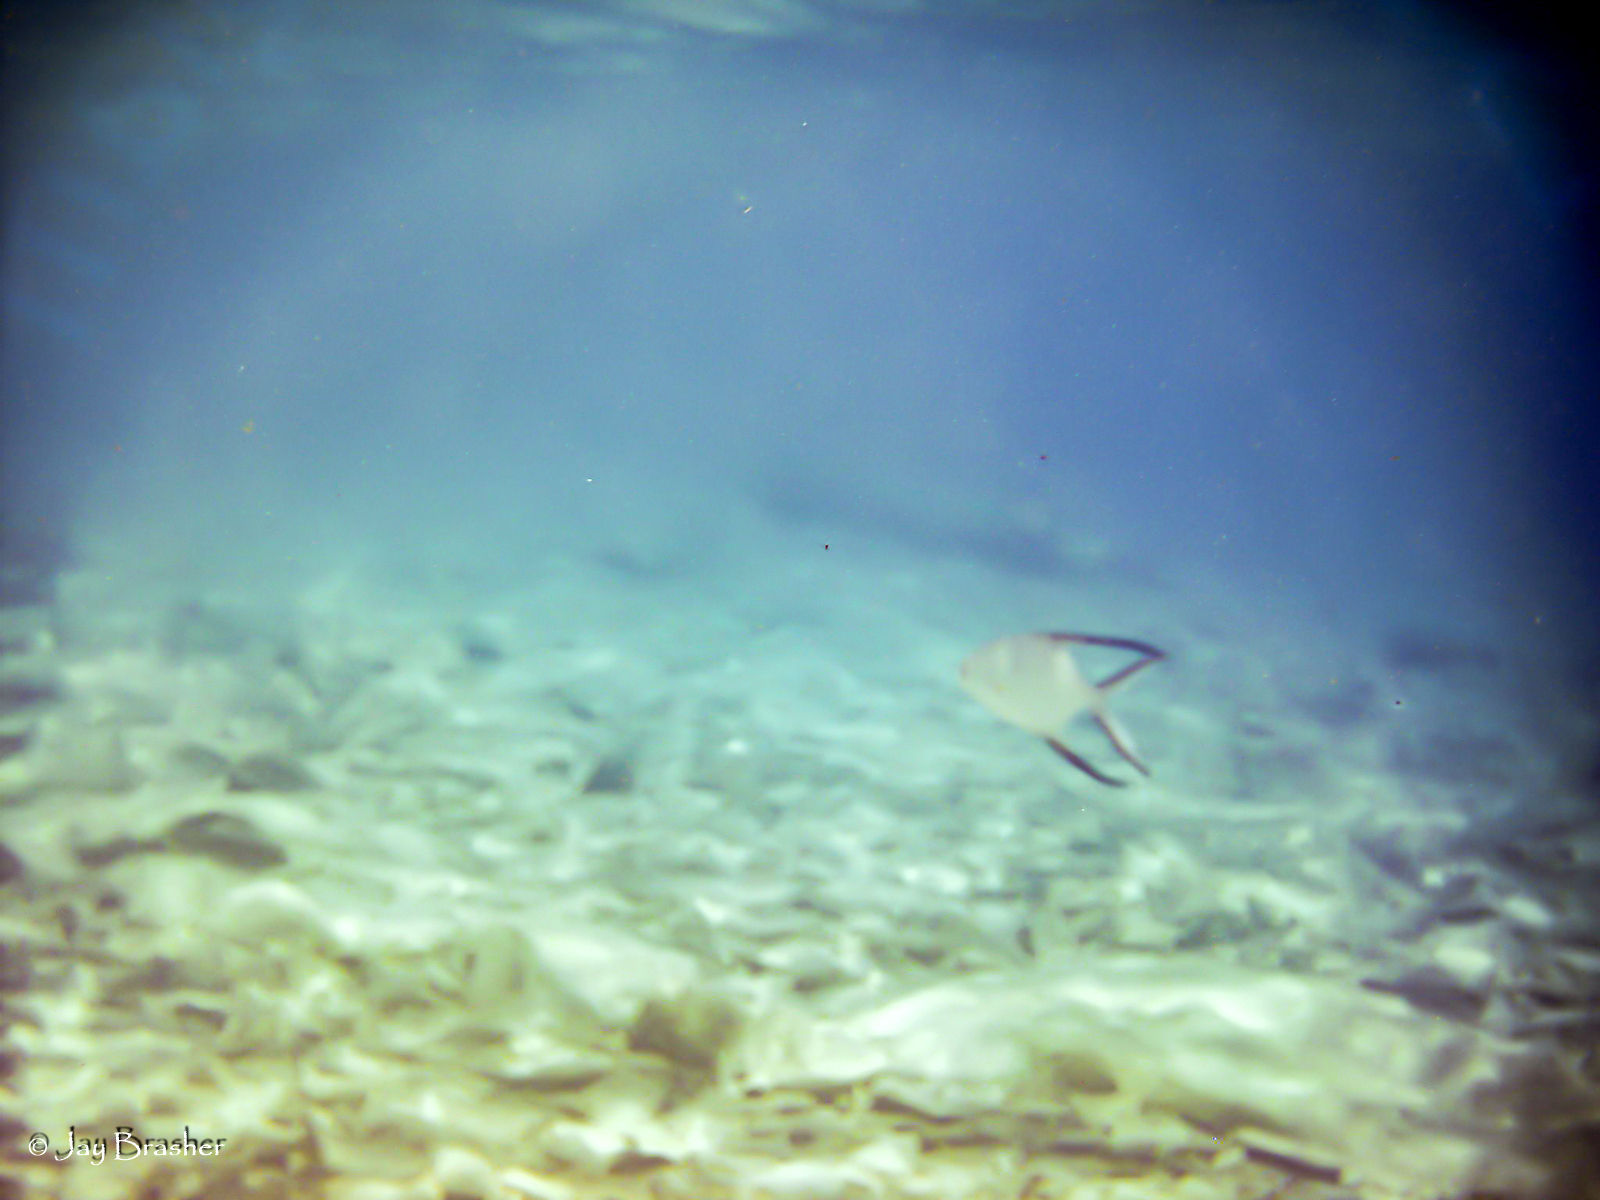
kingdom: Animalia
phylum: Chordata
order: Perciformes
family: Carangidae
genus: Trachinotus
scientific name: Trachinotus goodei
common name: Palometa
